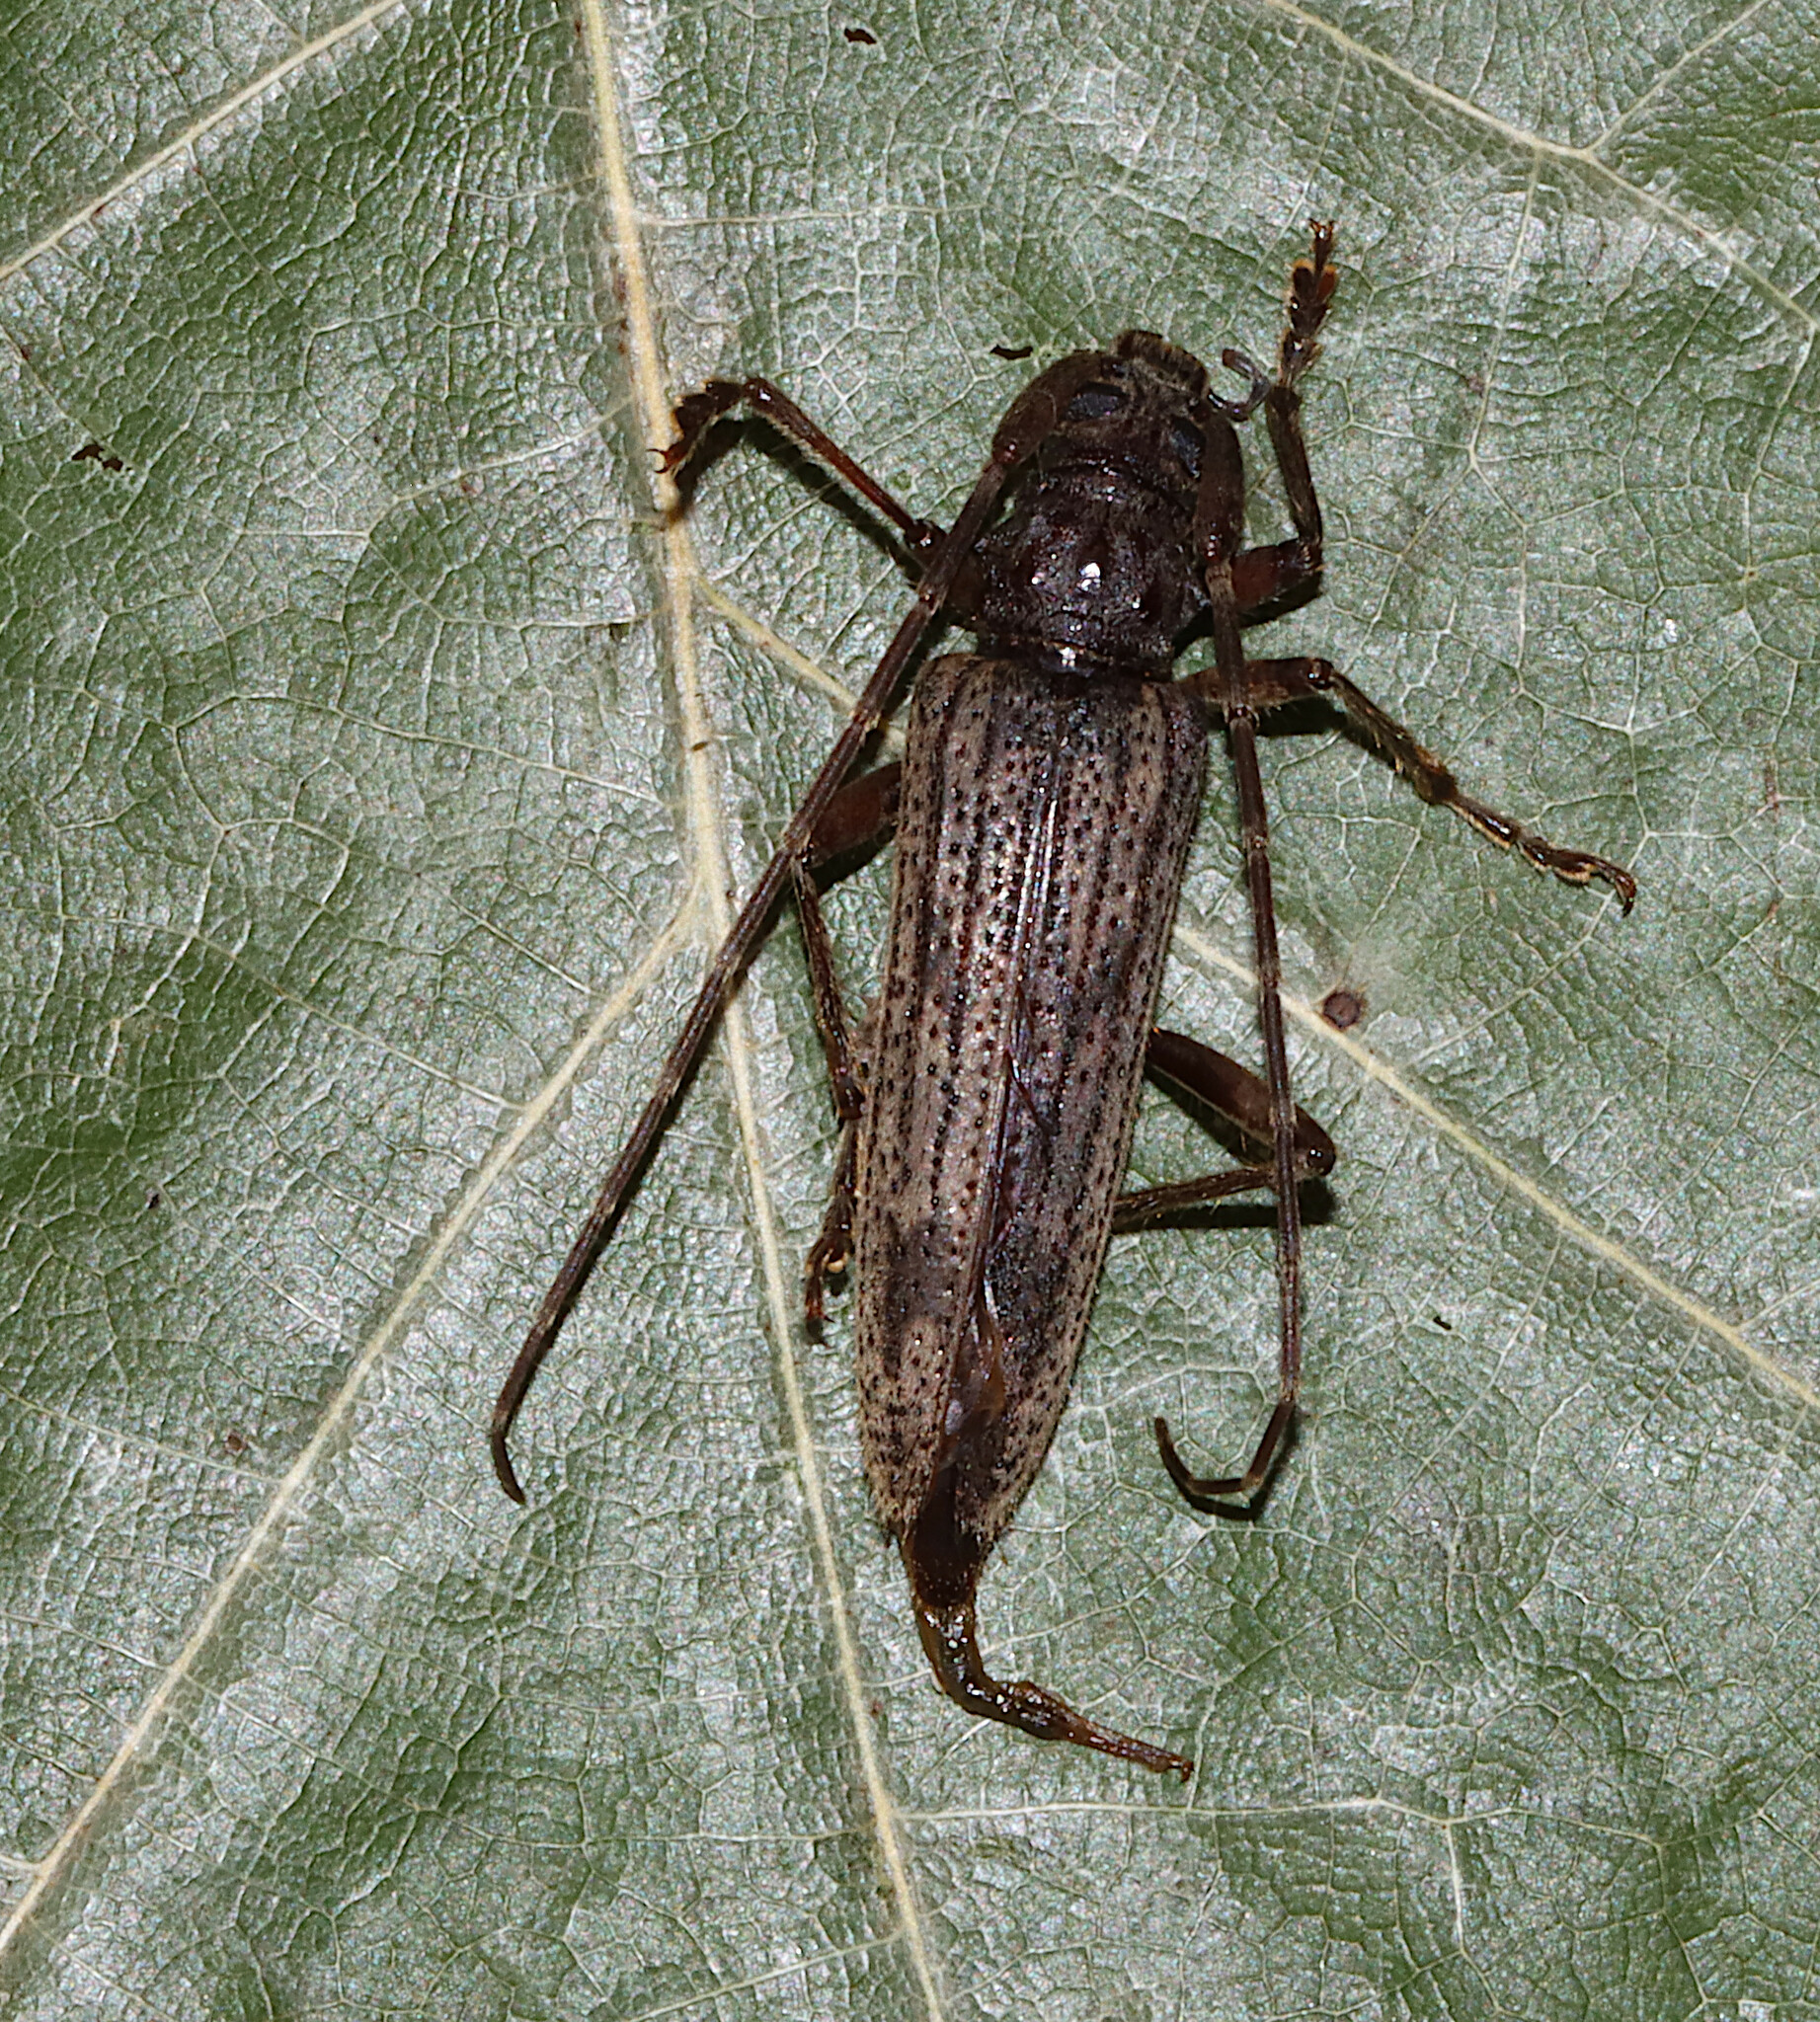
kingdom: Animalia
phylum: Arthropoda
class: Insecta
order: Coleoptera
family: Cerambycidae
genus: Elytrimitatrix
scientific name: Elytrimitatrix undata
